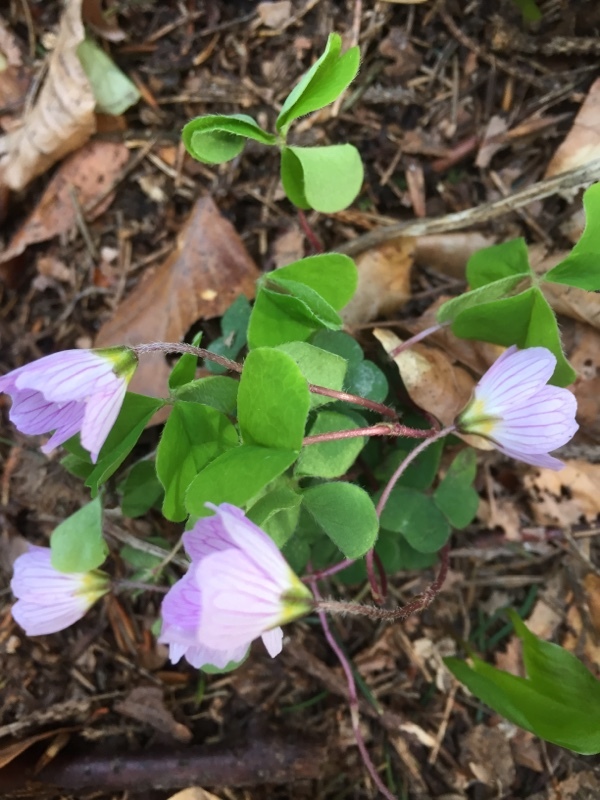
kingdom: Plantae
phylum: Tracheophyta
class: Magnoliopsida
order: Oxalidales
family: Oxalidaceae
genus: Oxalis
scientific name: Oxalis acetosella
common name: Wood-sorrel
